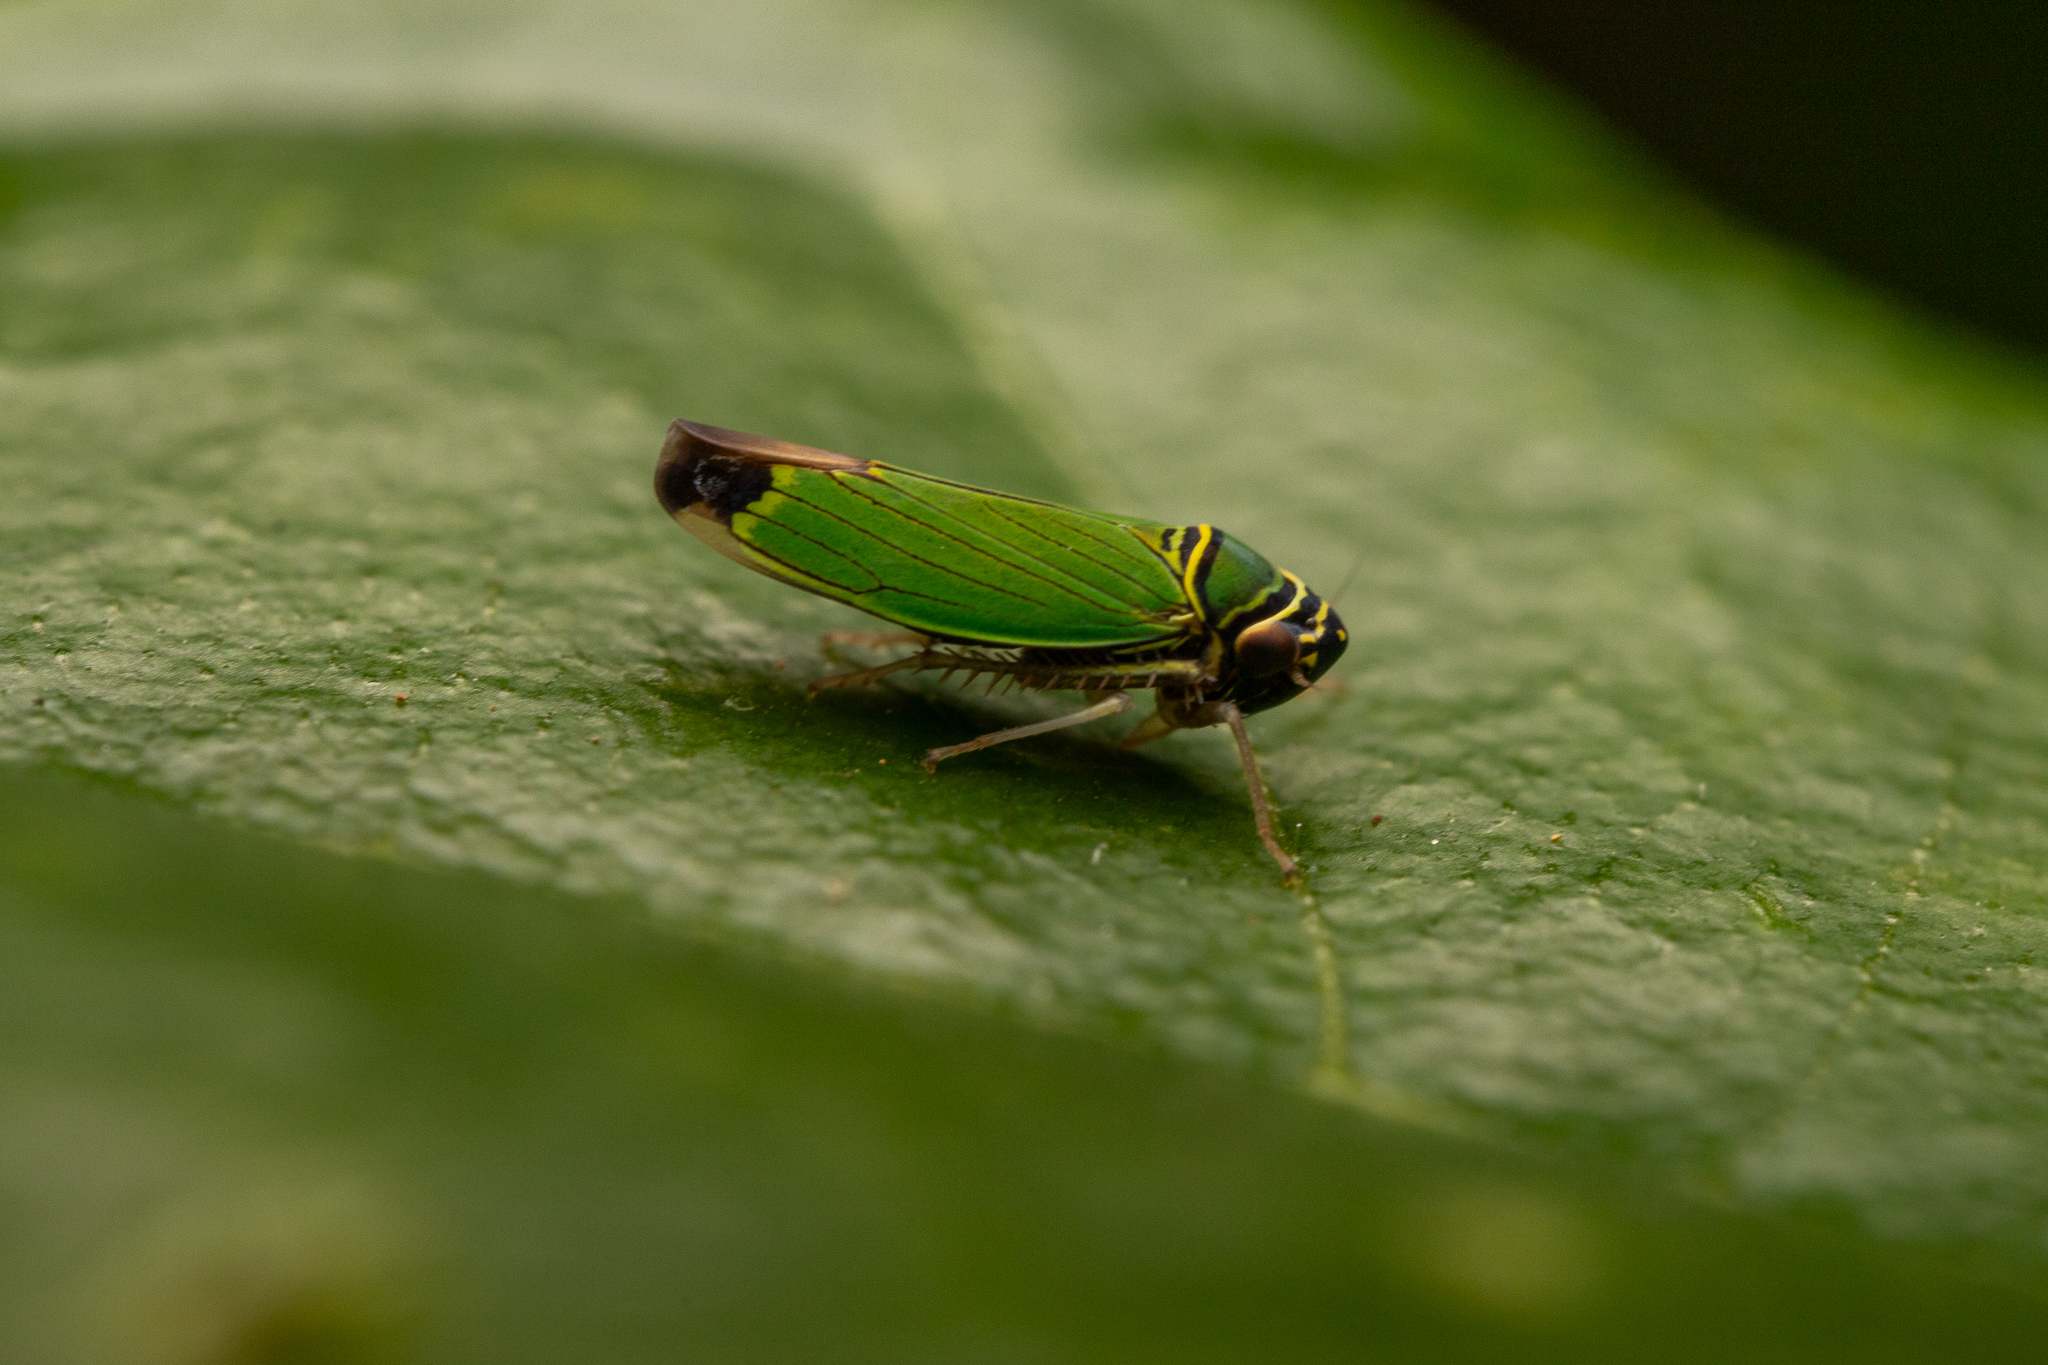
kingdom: Animalia
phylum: Arthropoda
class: Insecta
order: Hemiptera
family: Cicadellidae
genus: Tylozygus
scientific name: Tylozygus geometricus
